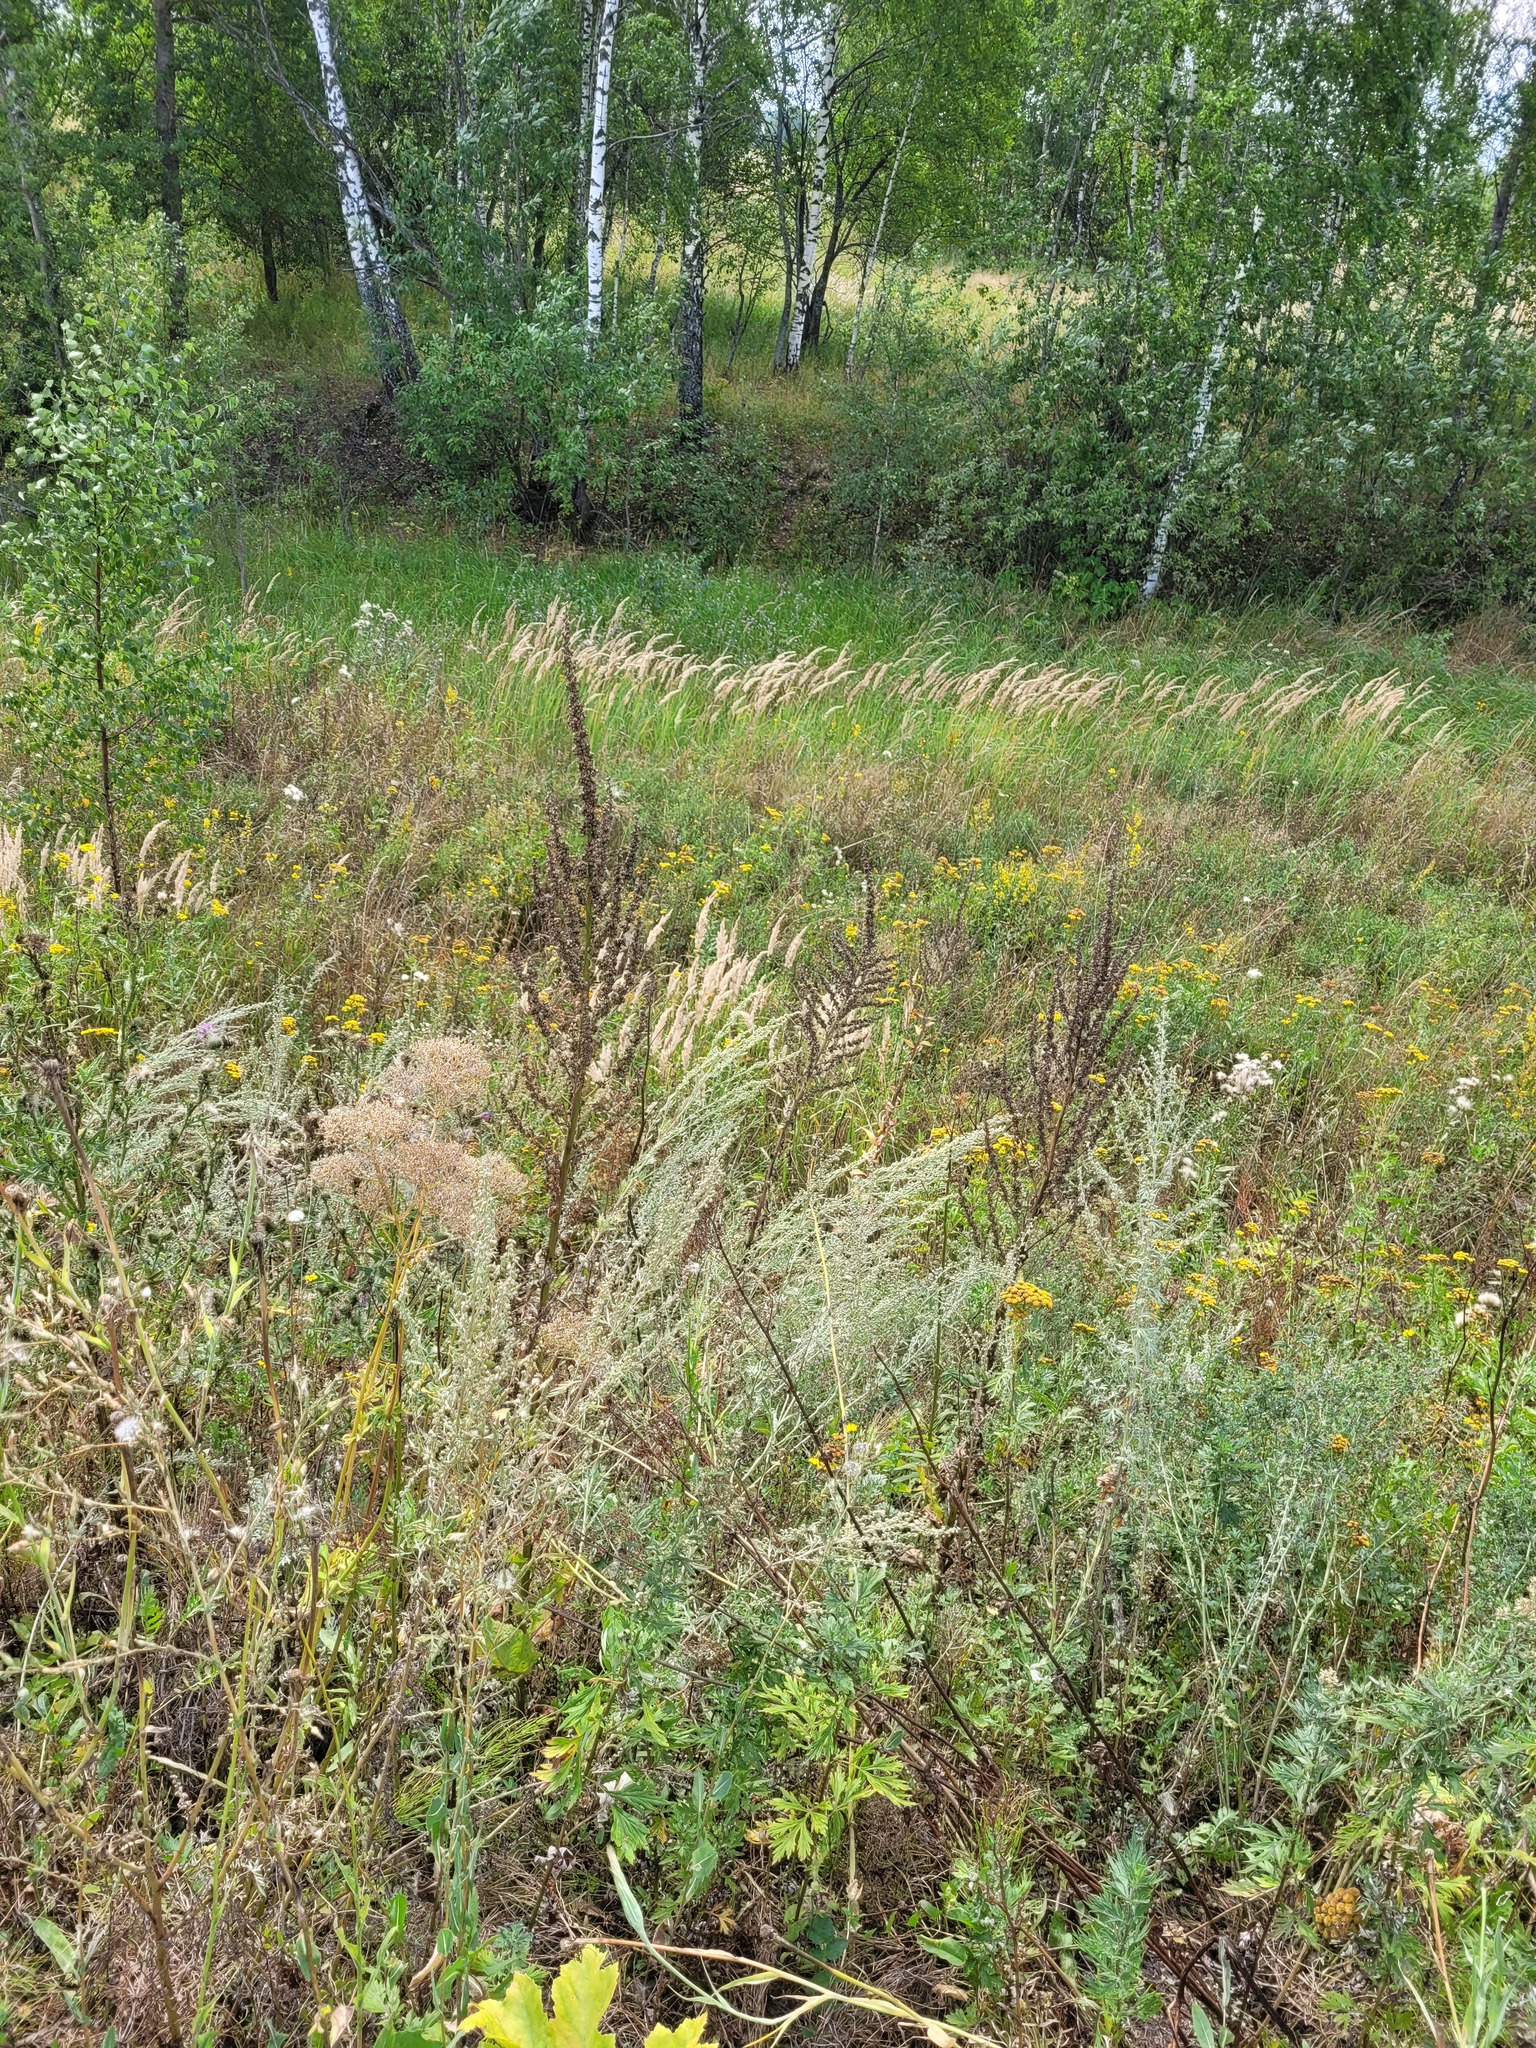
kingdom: Plantae
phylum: Tracheophyta
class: Magnoliopsida
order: Lamiales
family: Scrophulariaceae
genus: Verbascum
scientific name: Verbascum lychnitis
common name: White mullein
